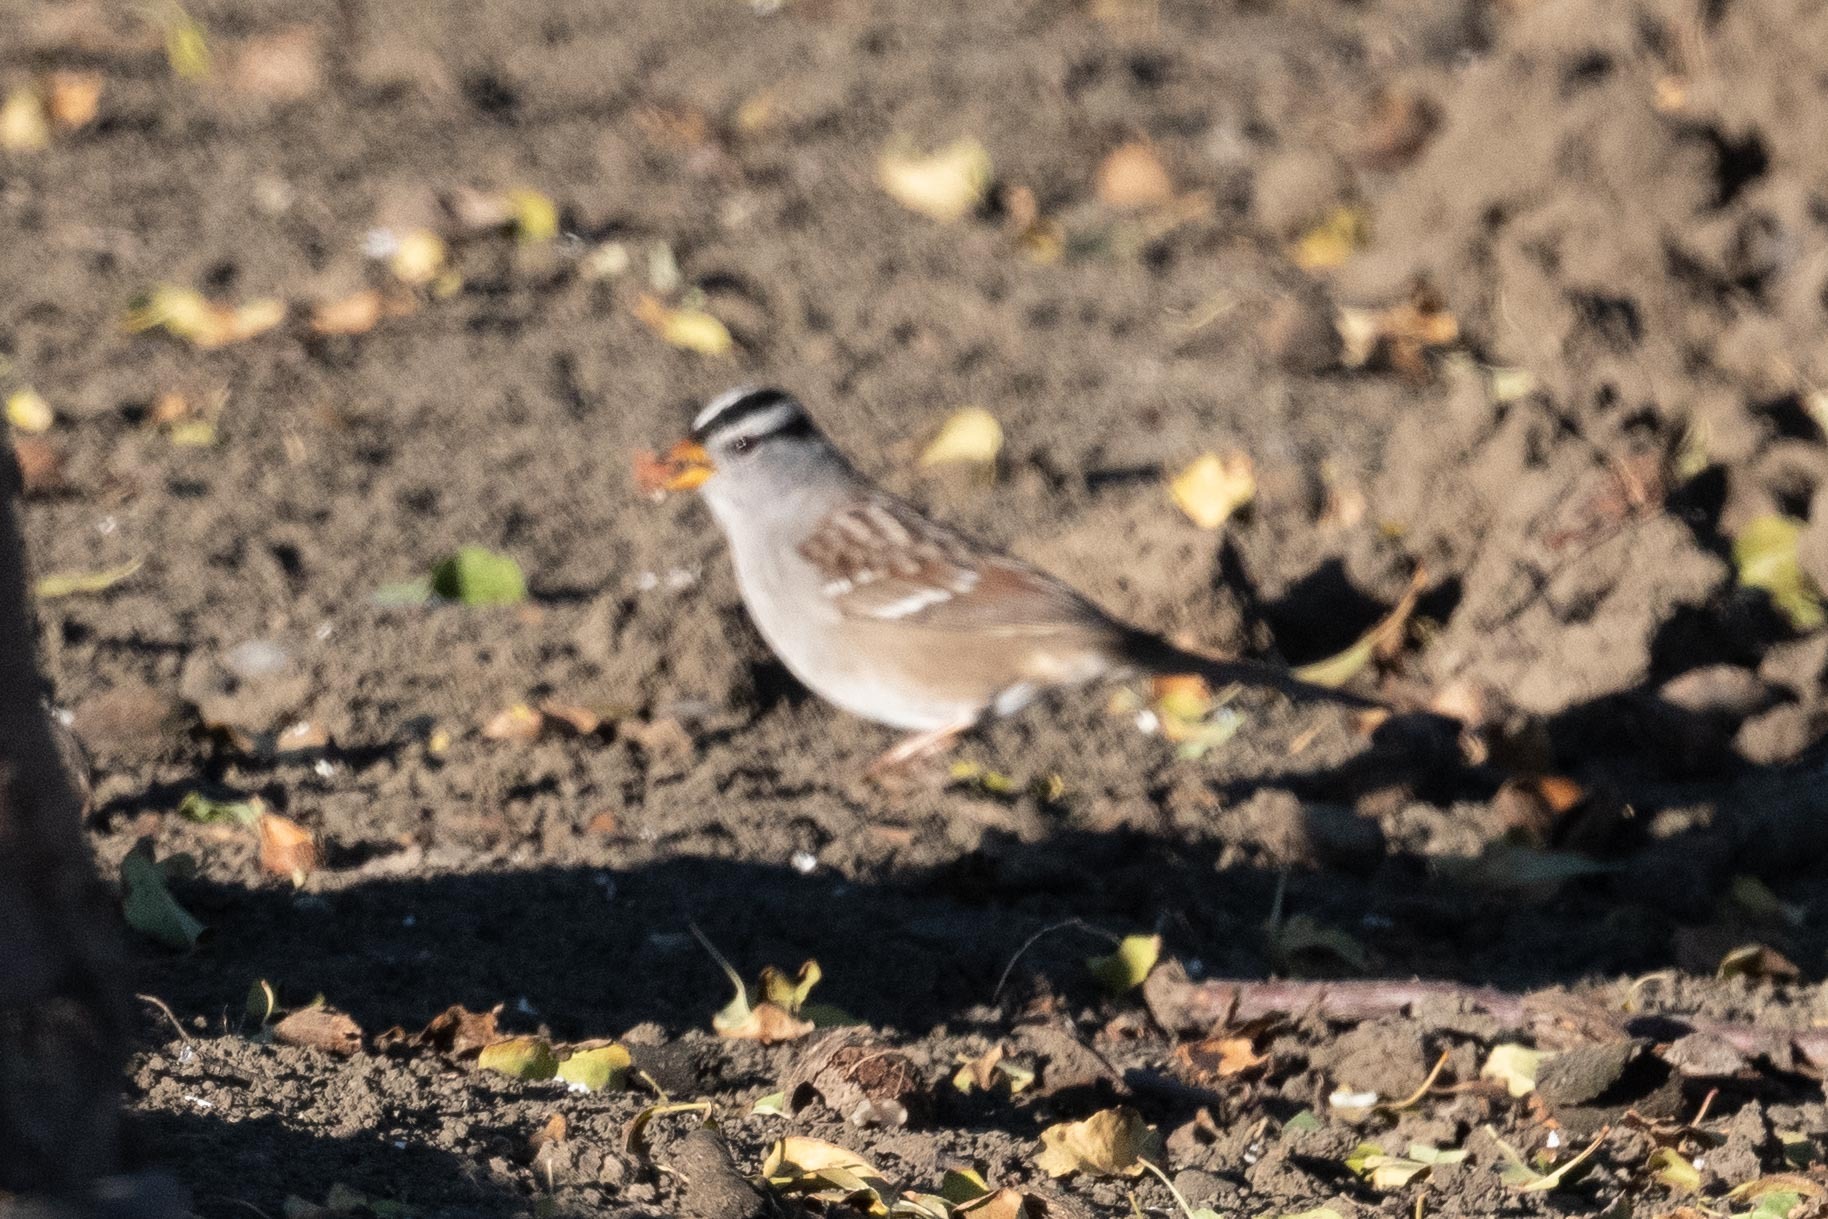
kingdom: Animalia
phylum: Chordata
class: Aves
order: Passeriformes
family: Passerellidae
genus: Zonotrichia
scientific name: Zonotrichia leucophrys
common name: White-crowned sparrow
